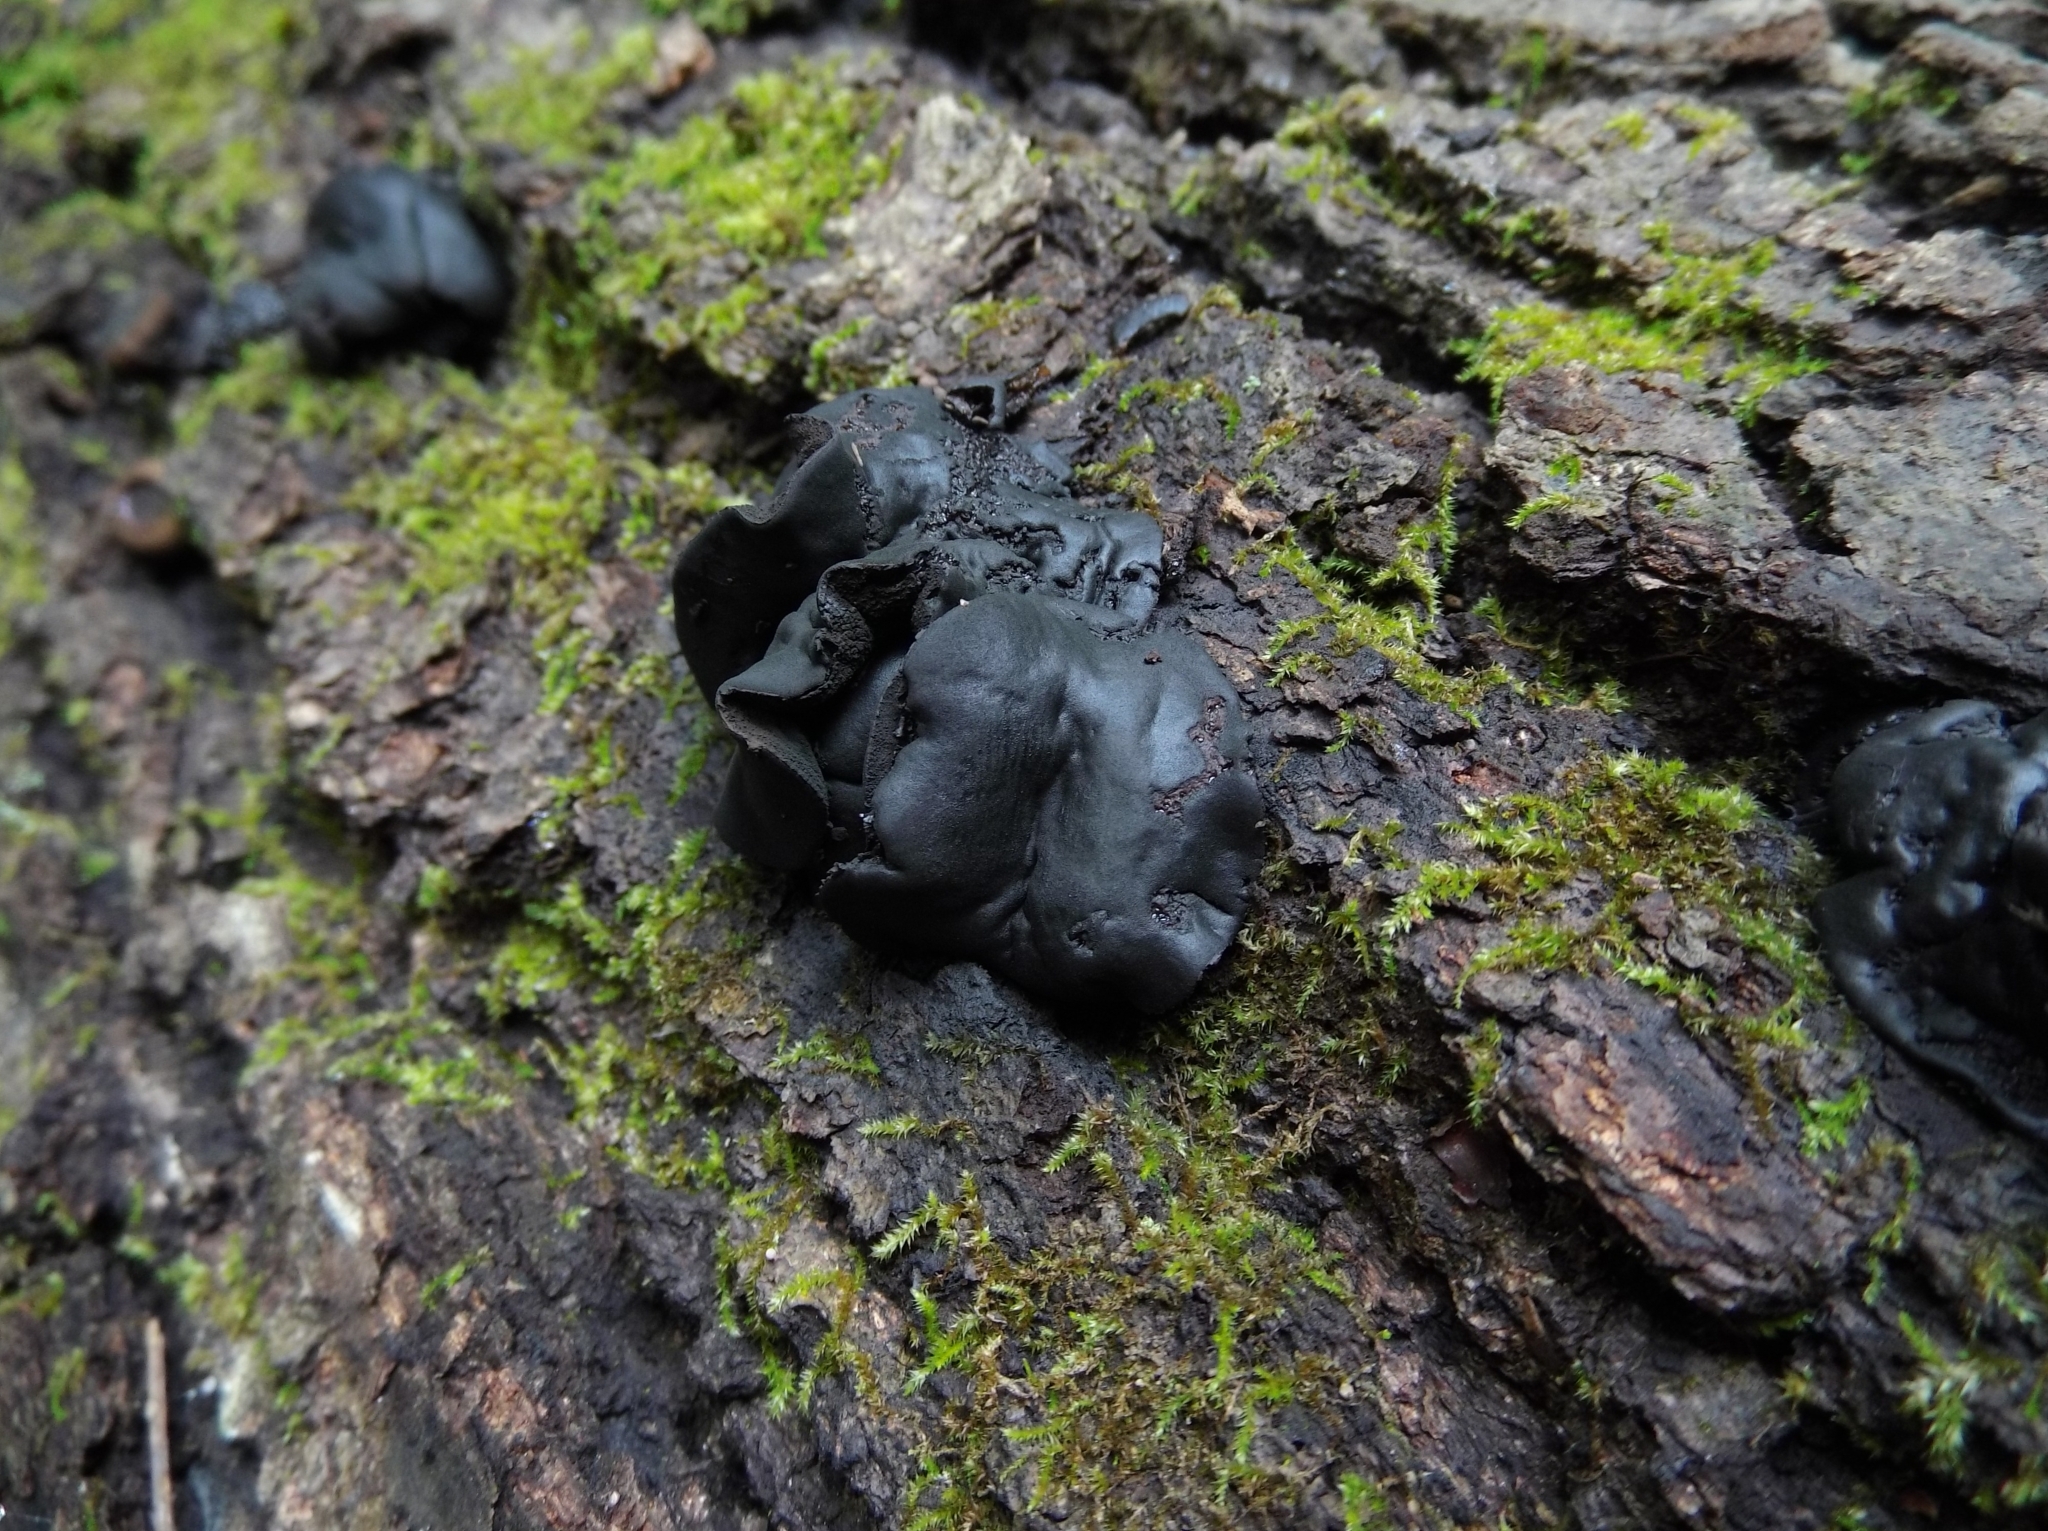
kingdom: Fungi
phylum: Ascomycota
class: Leotiomycetes
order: Phacidiales
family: Phacidiaceae
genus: Bulgaria
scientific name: Bulgaria inquinans
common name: Black bulgar
